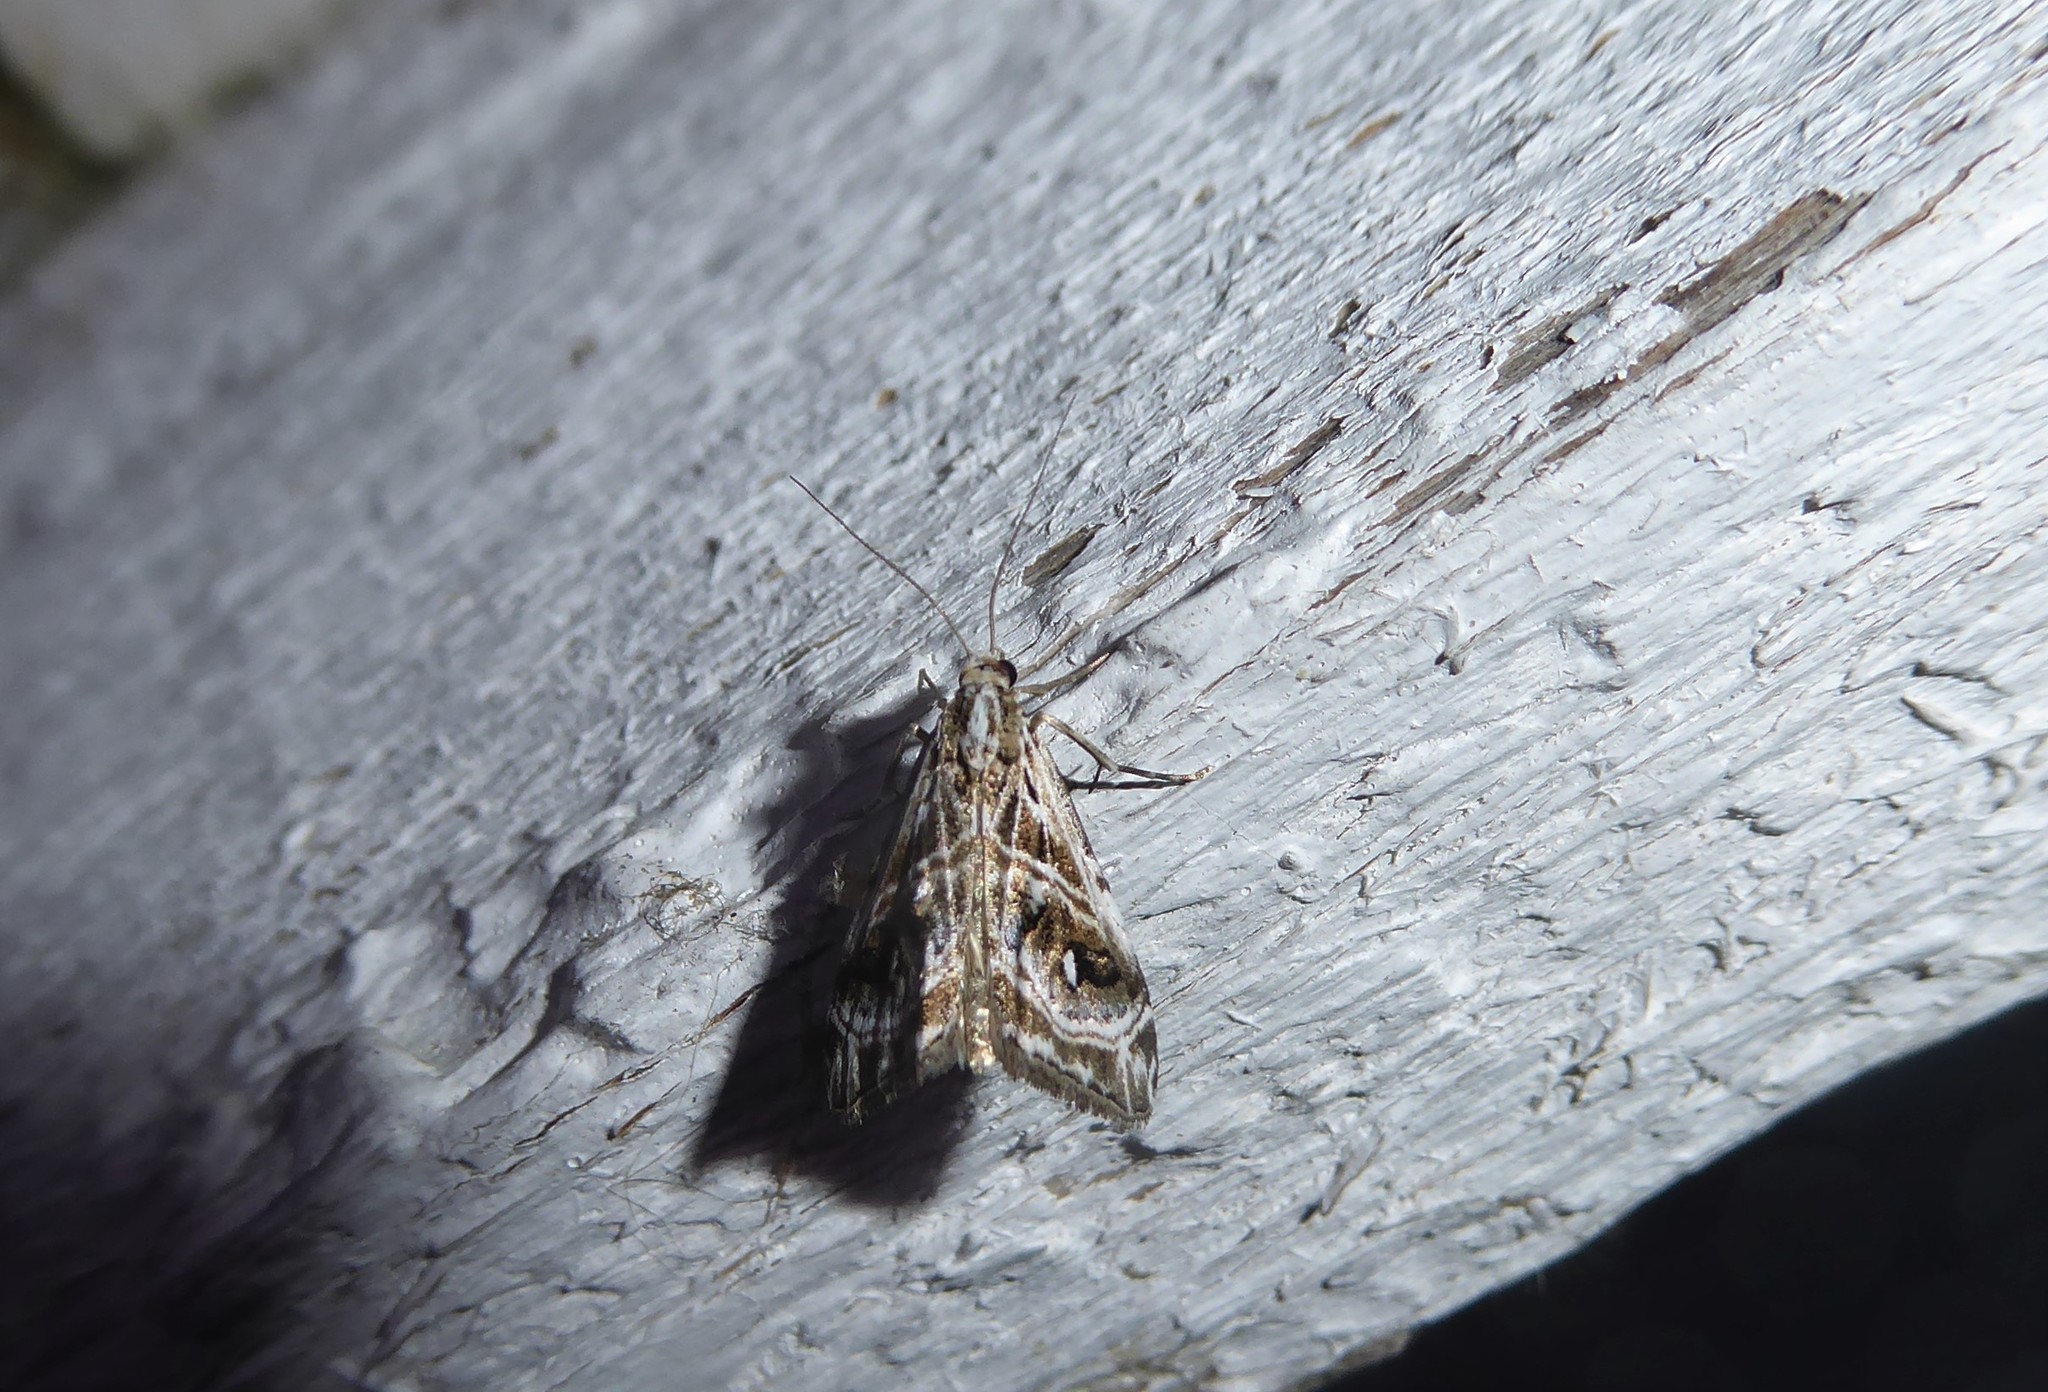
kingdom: Animalia
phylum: Arthropoda
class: Insecta
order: Lepidoptera
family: Crambidae
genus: Gadira
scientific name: Gadira acerella
